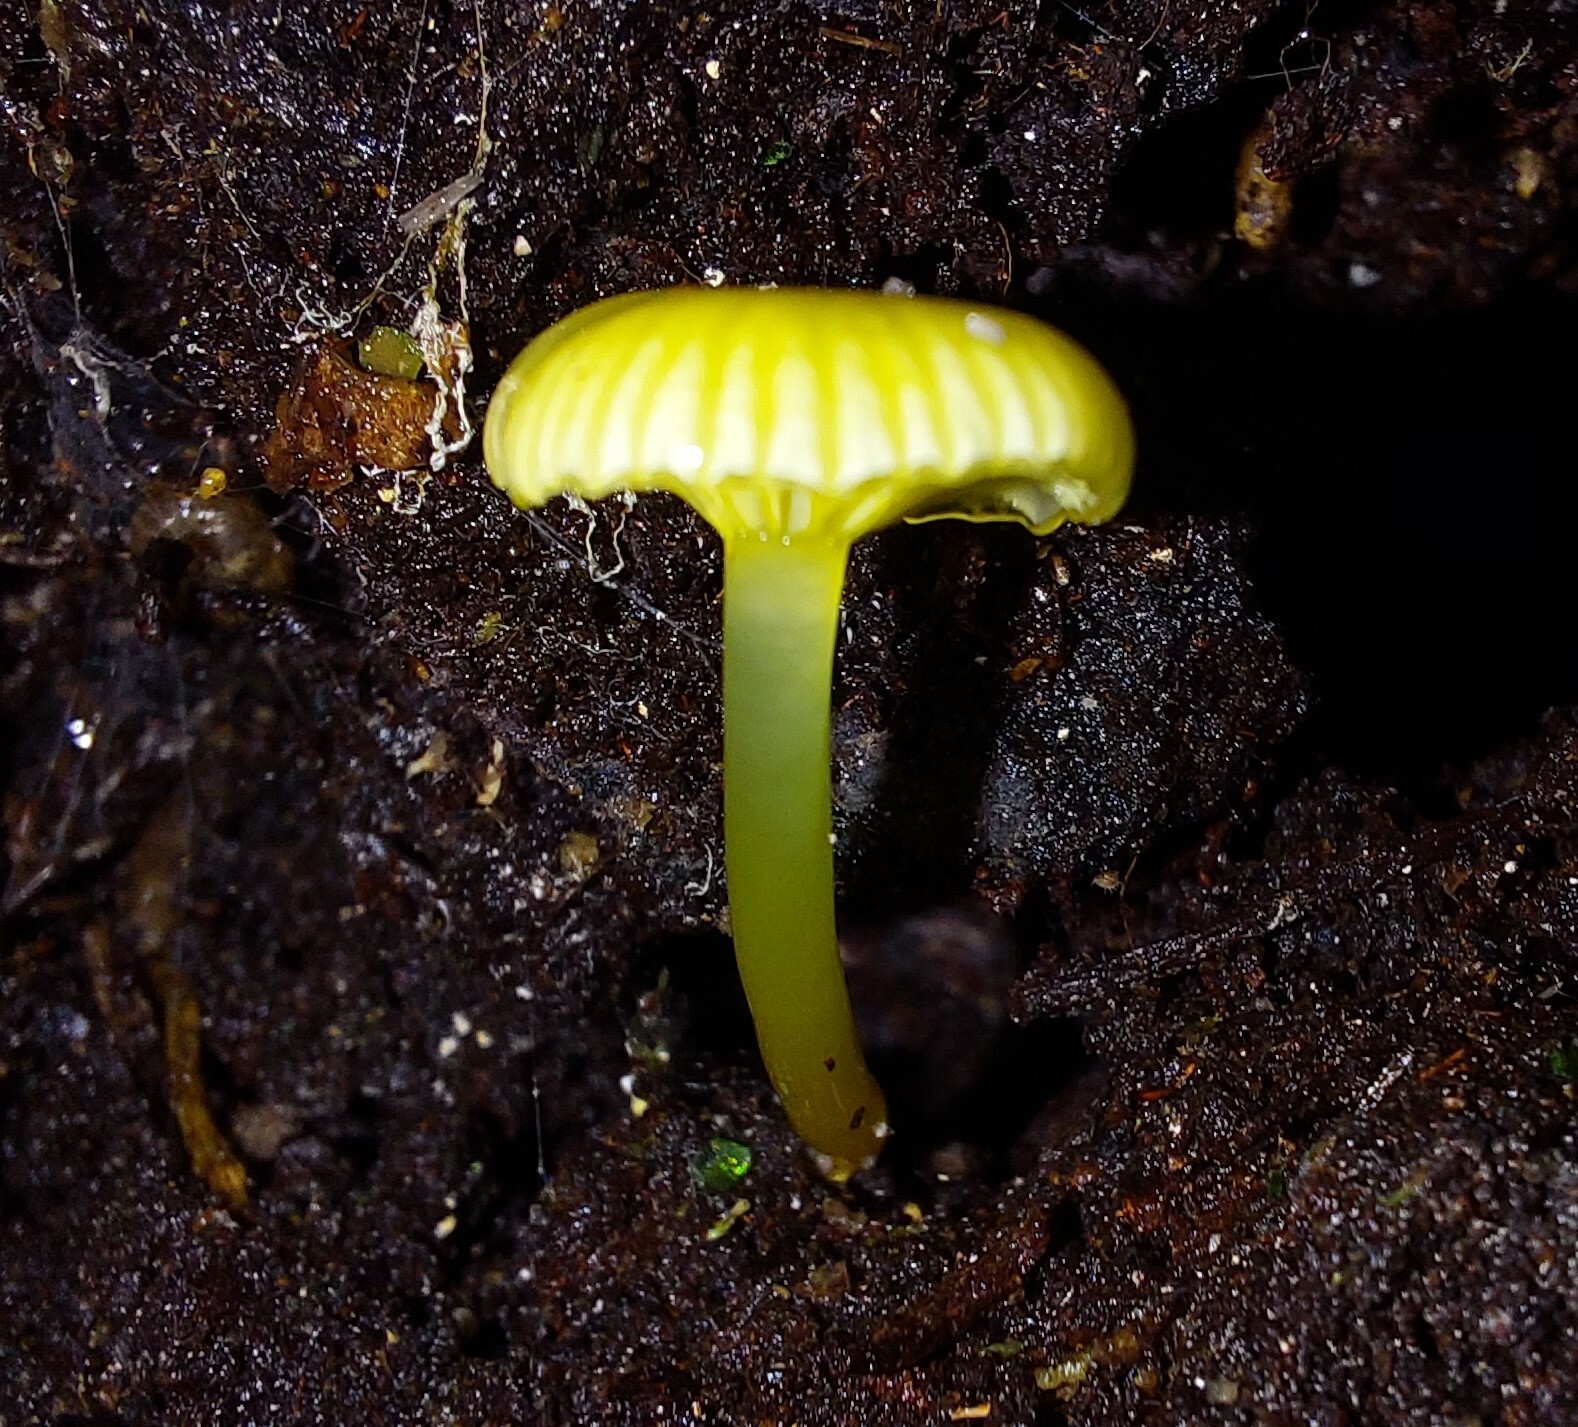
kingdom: Fungi
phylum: Basidiomycota
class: Agaricomycetes
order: Agaricales
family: Hygrophoraceae
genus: Gloioxanthomyces
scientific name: Gloioxanthomyces
